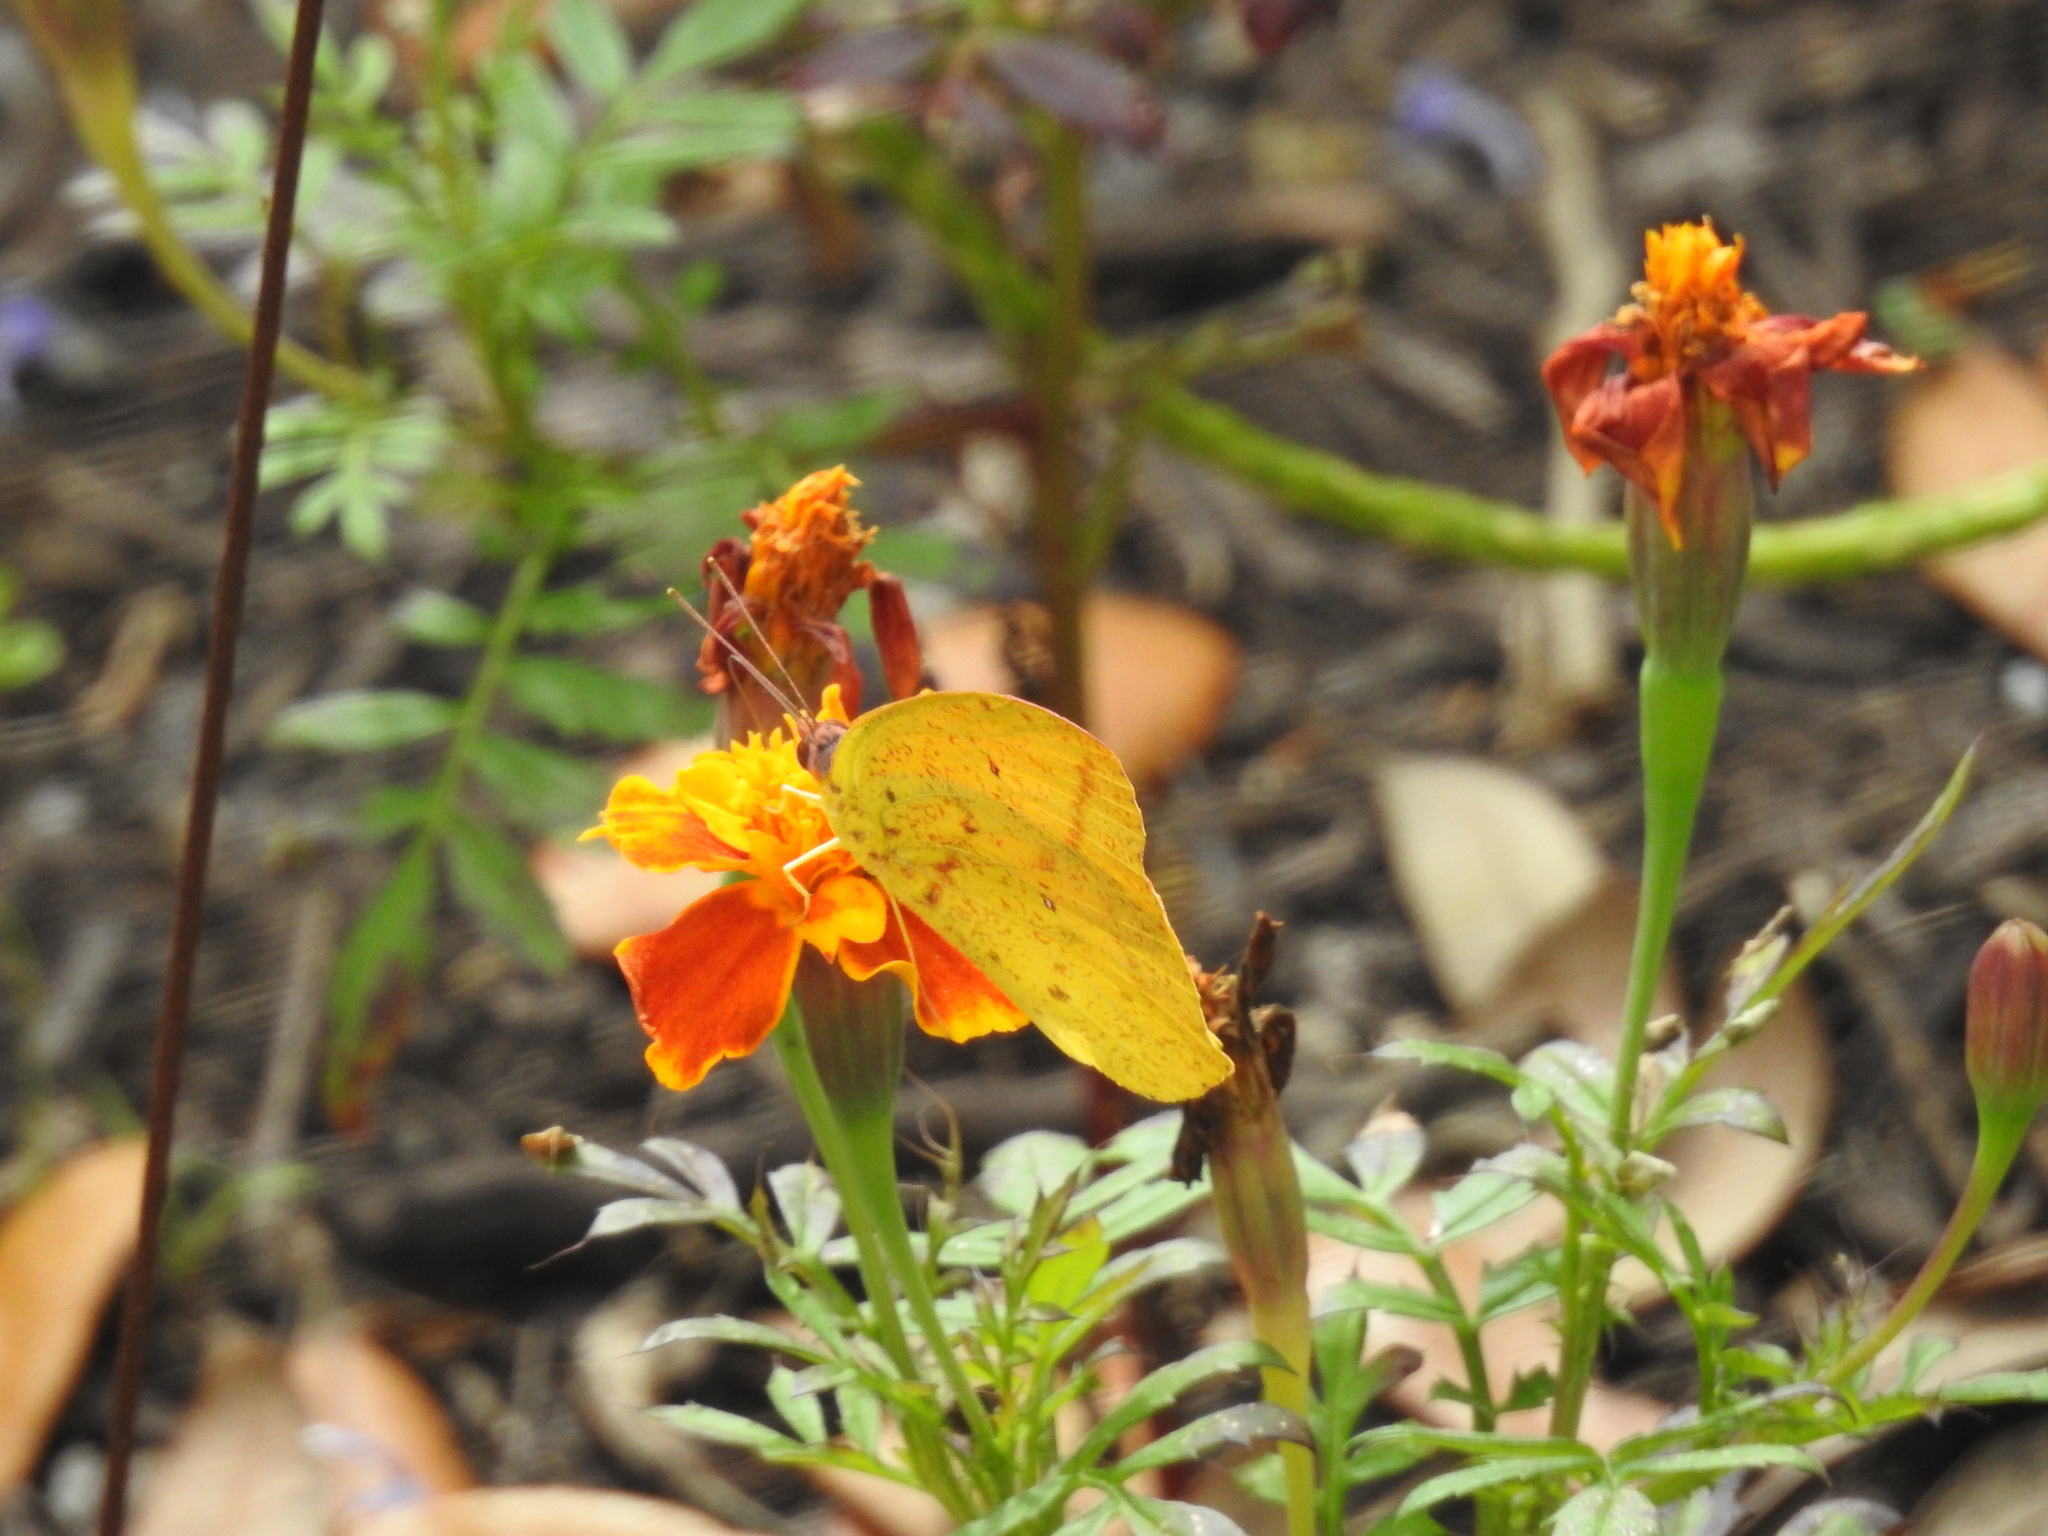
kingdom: Animalia
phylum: Arthropoda
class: Insecta
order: Lepidoptera
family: Pieridae
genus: Phoebis
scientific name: Phoebis agarithe
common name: Large orange sulphur
